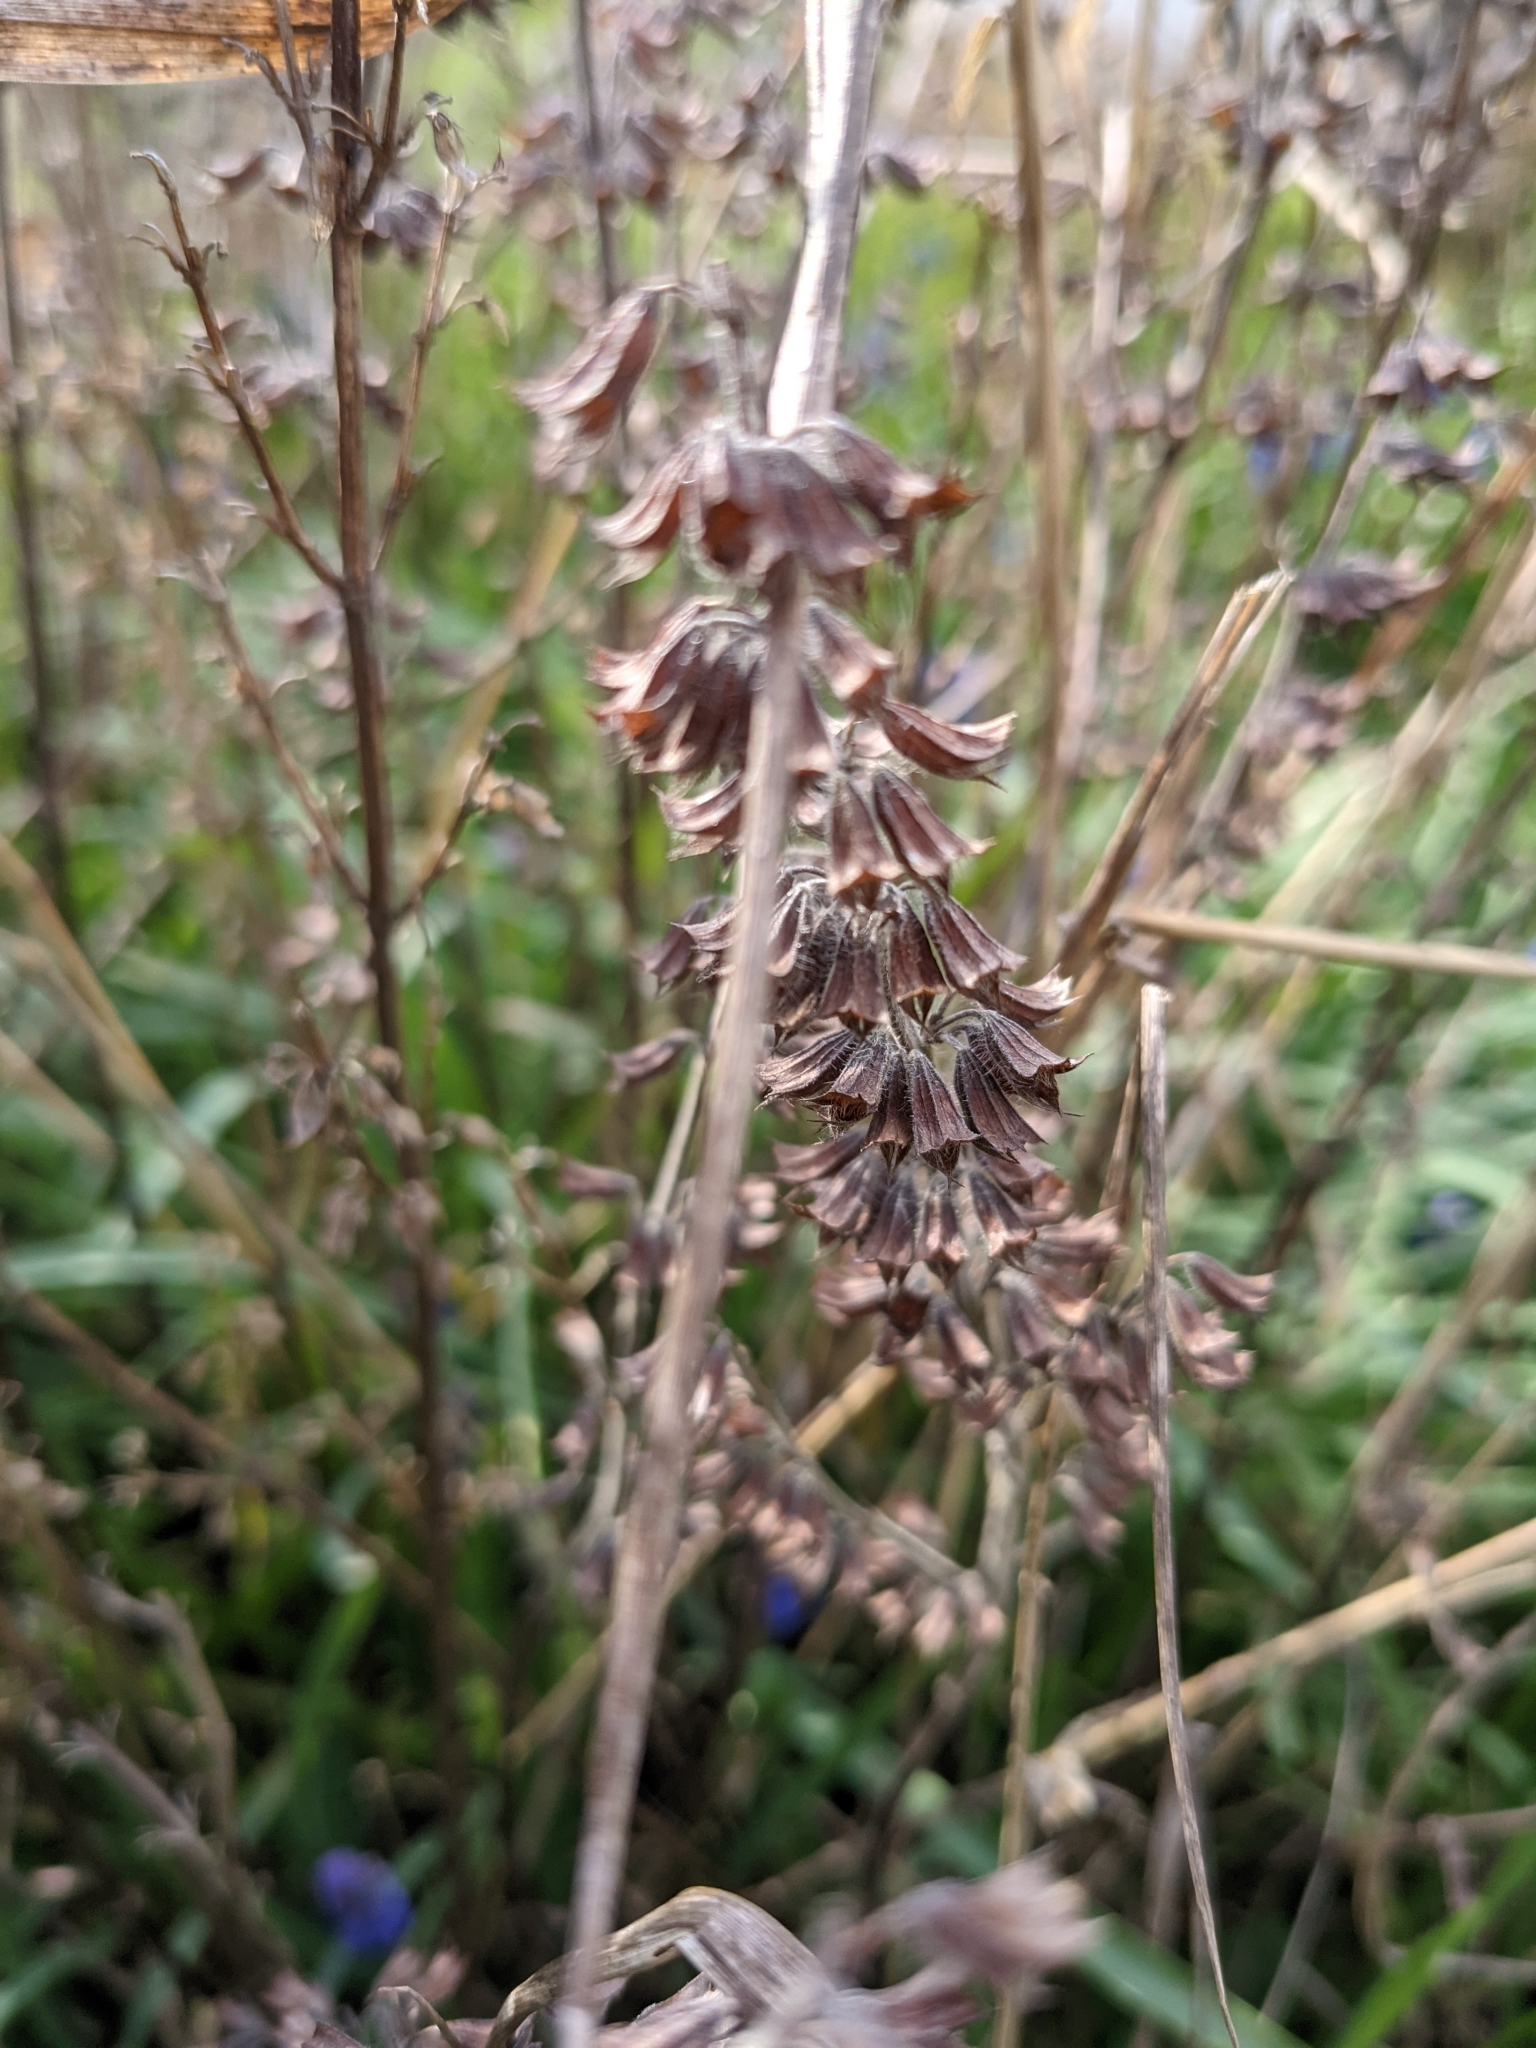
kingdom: Plantae
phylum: Tracheophyta
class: Magnoliopsida
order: Lamiales
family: Lamiaceae
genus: Melissa
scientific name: Melissa officinalis
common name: Balm
